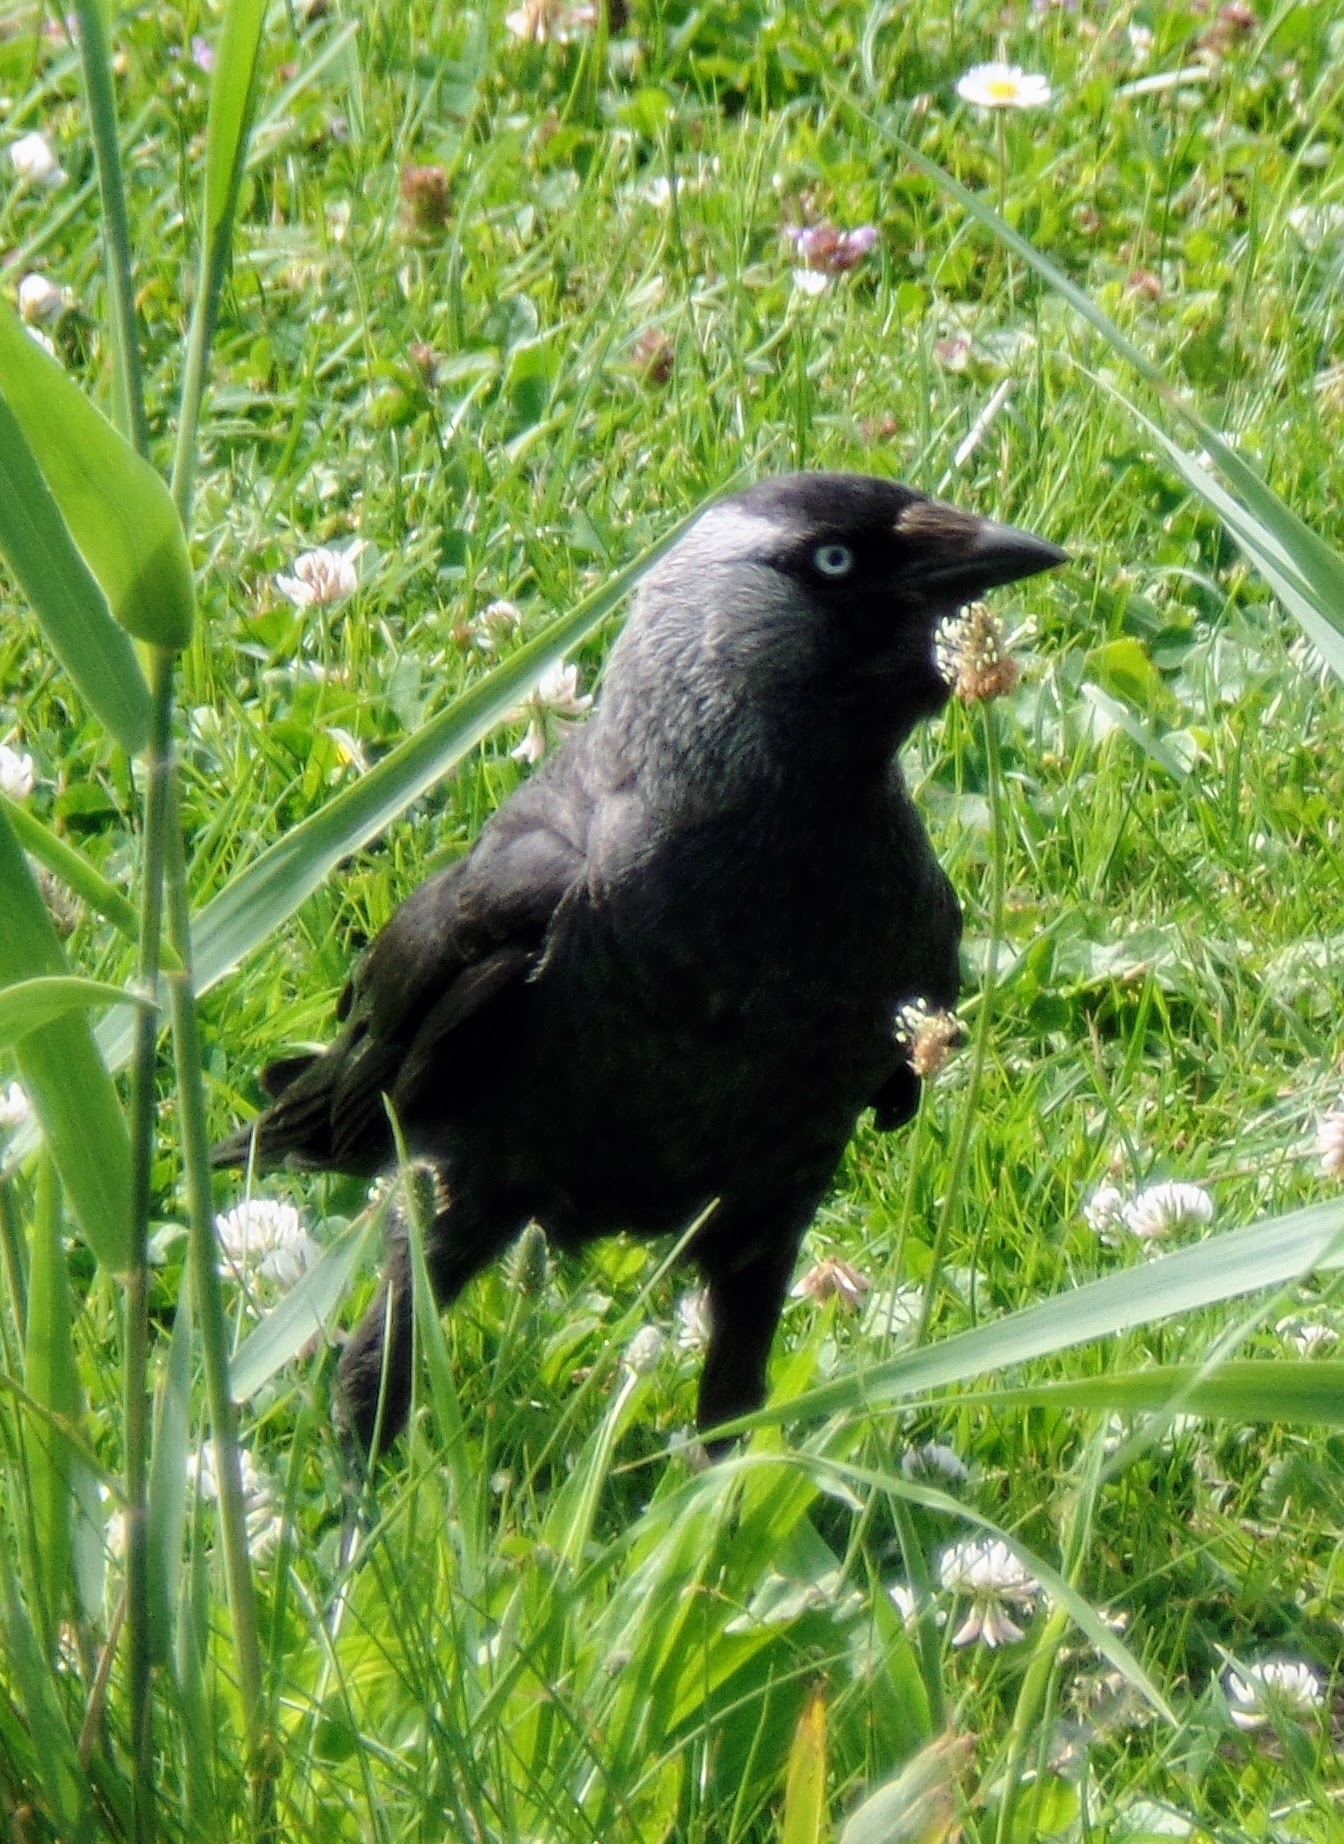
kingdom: Animalia
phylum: Chordata
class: Aves
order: Passeriformes
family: Corvidae
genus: Coloeus
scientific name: Coloeus monedula
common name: Western jackdaw
